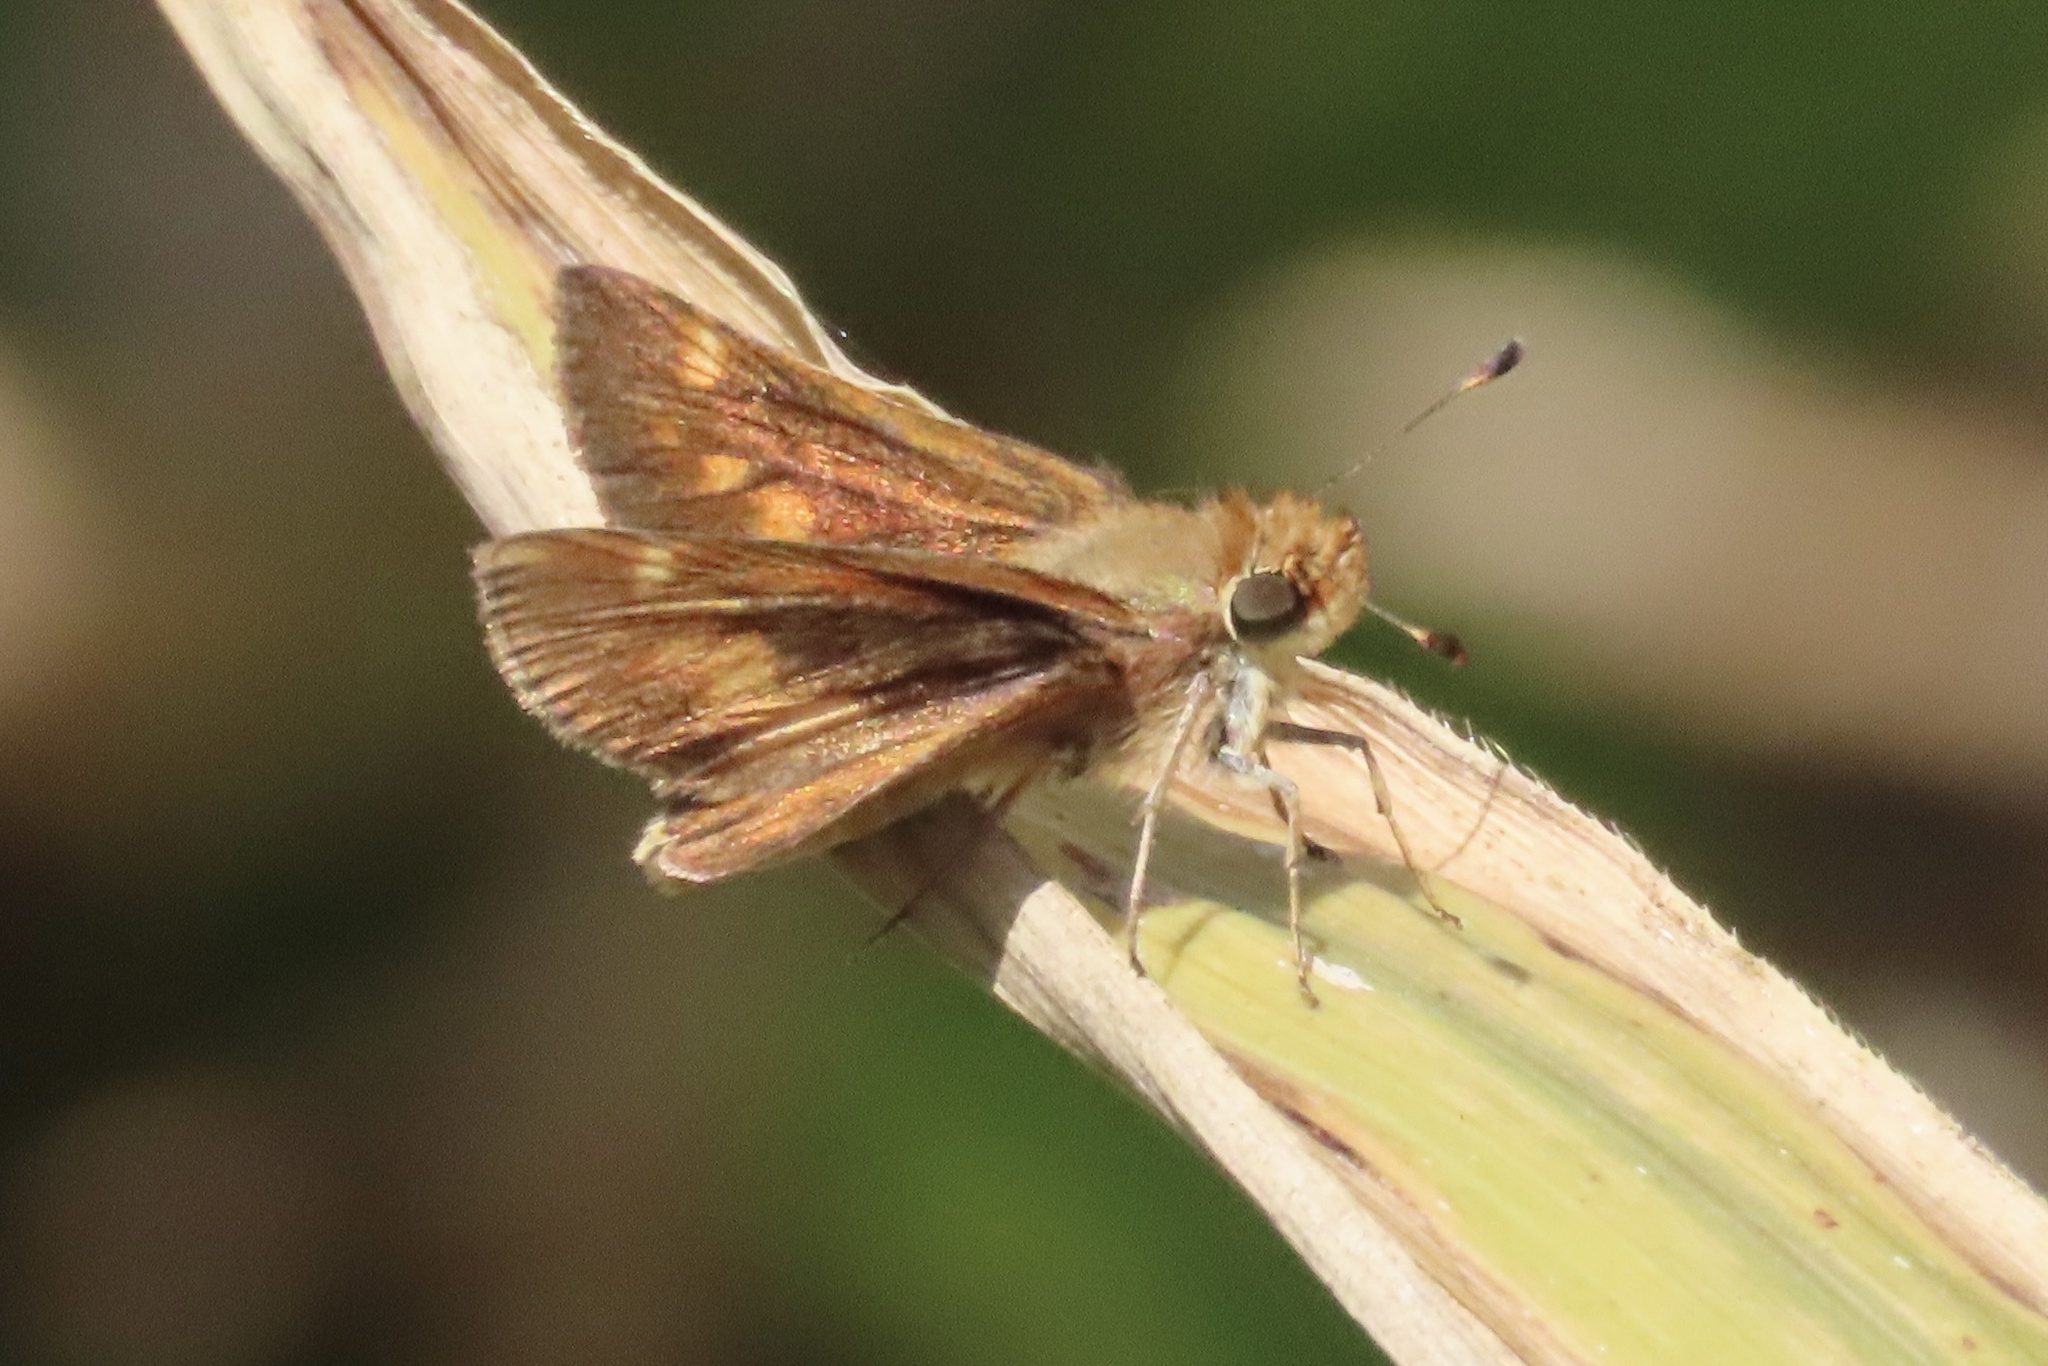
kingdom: Animalia
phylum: Arthropoda
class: Insecta
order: Lepidoptera
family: Hesperiidae
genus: Lon
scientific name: Lon melane
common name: Umber skipper
